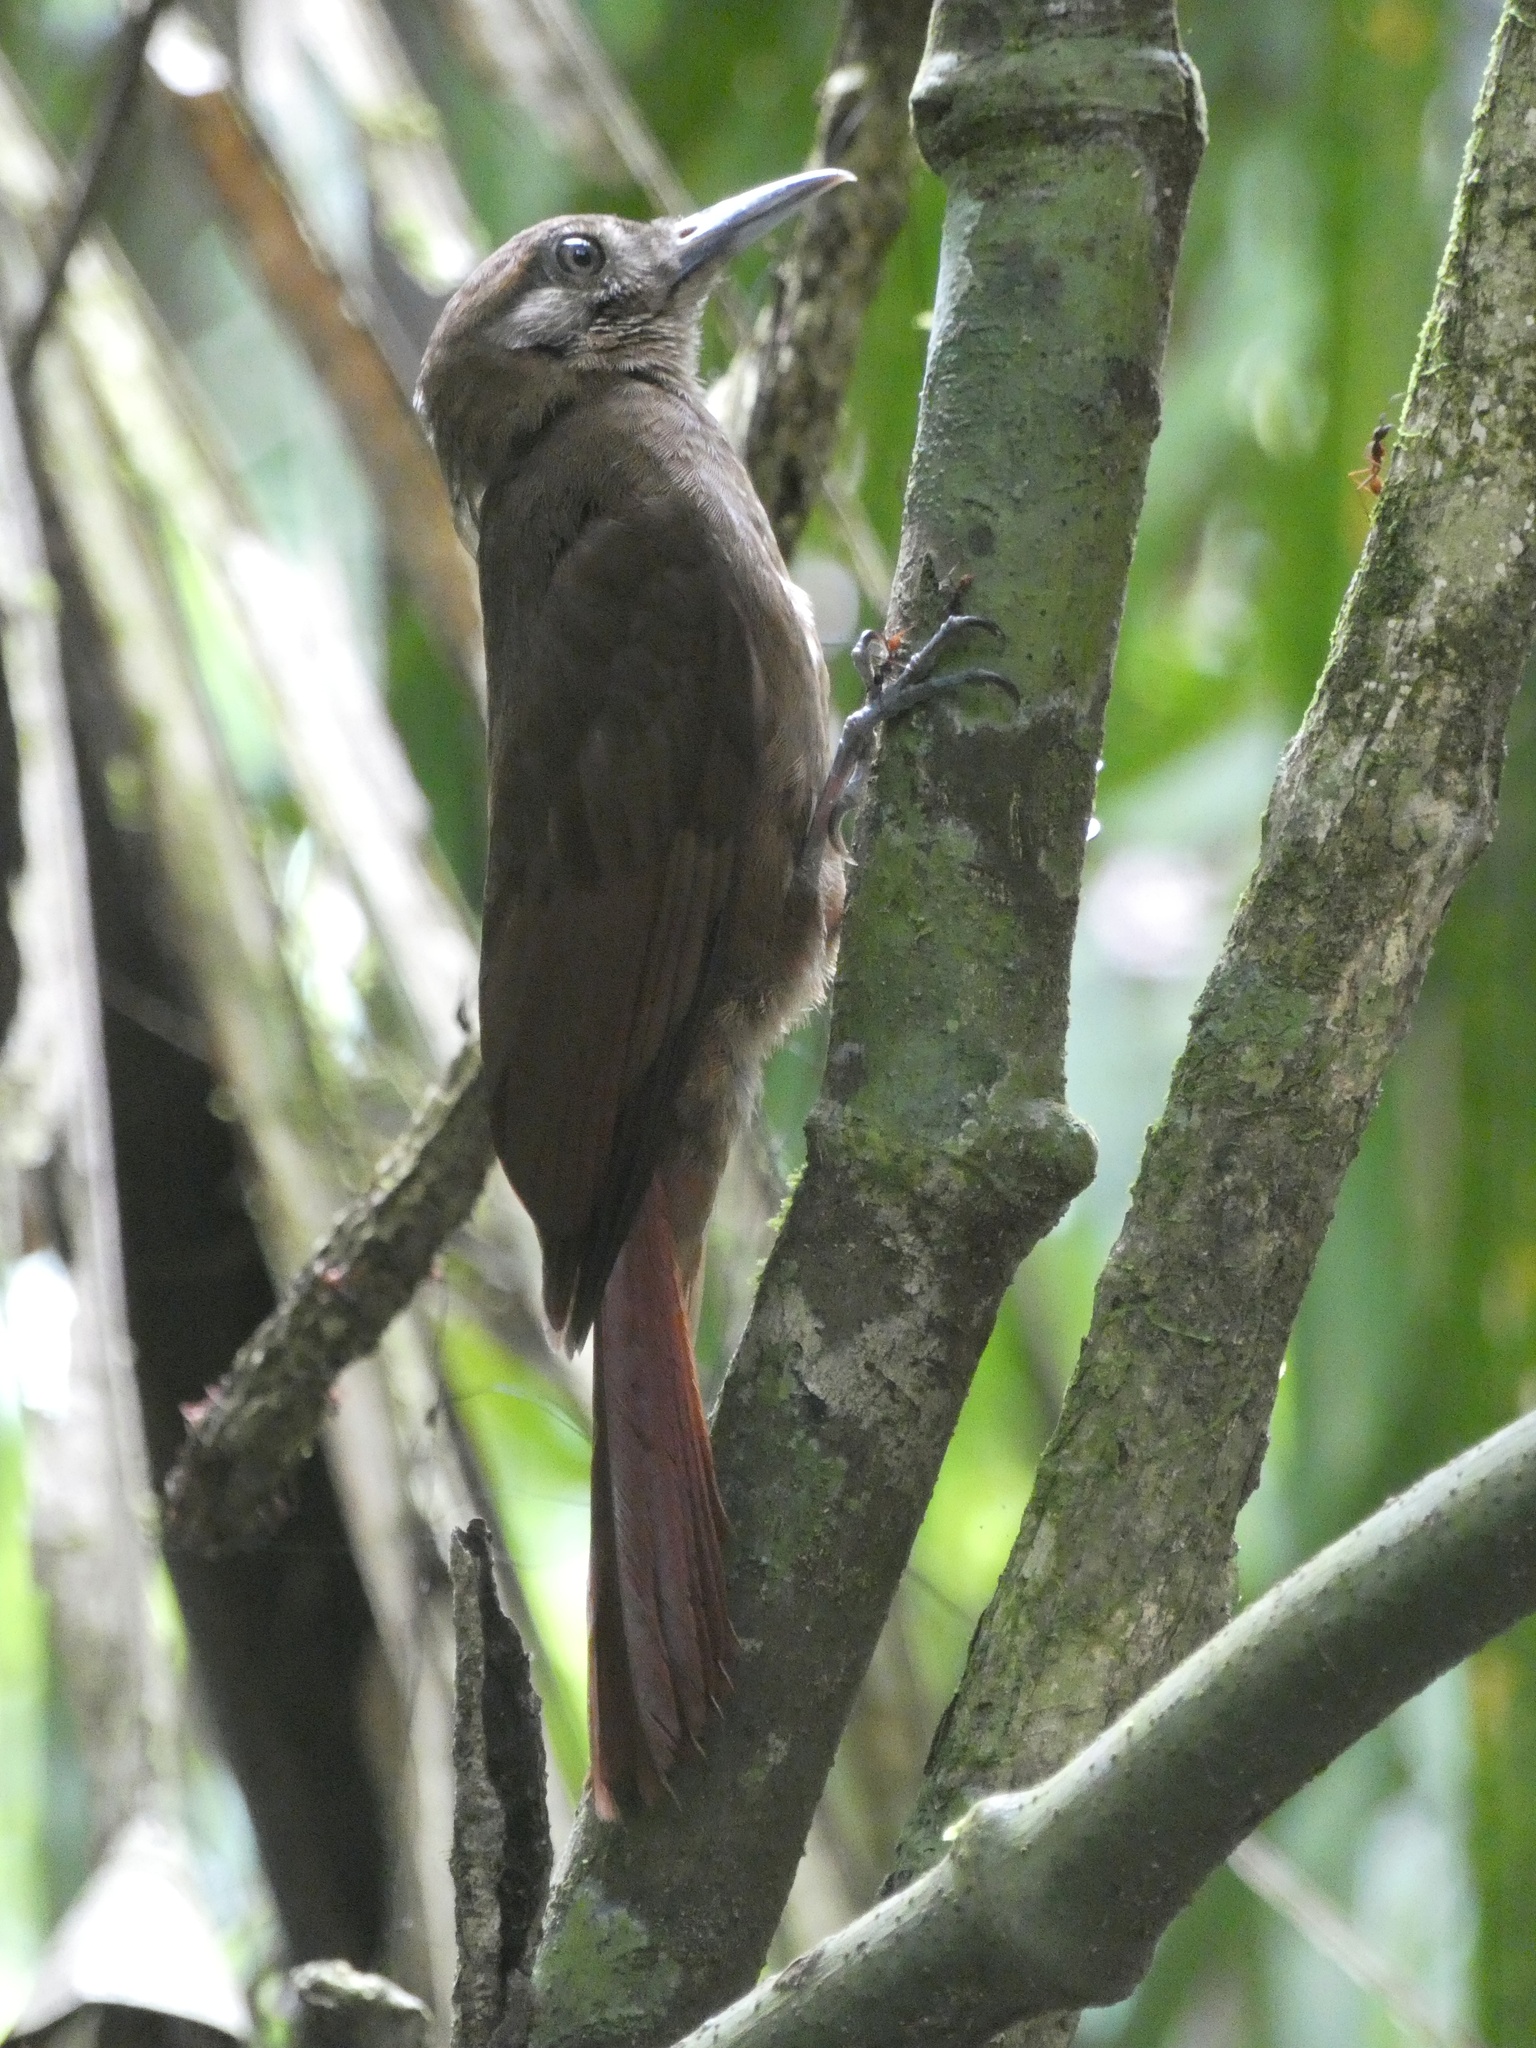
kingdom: Animalia
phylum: Chordata
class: Aves
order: Passeriformes
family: Furnariidae
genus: Dendrocincla
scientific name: Dendrocincla fuliginosa
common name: Plain-brown woodcreeper
